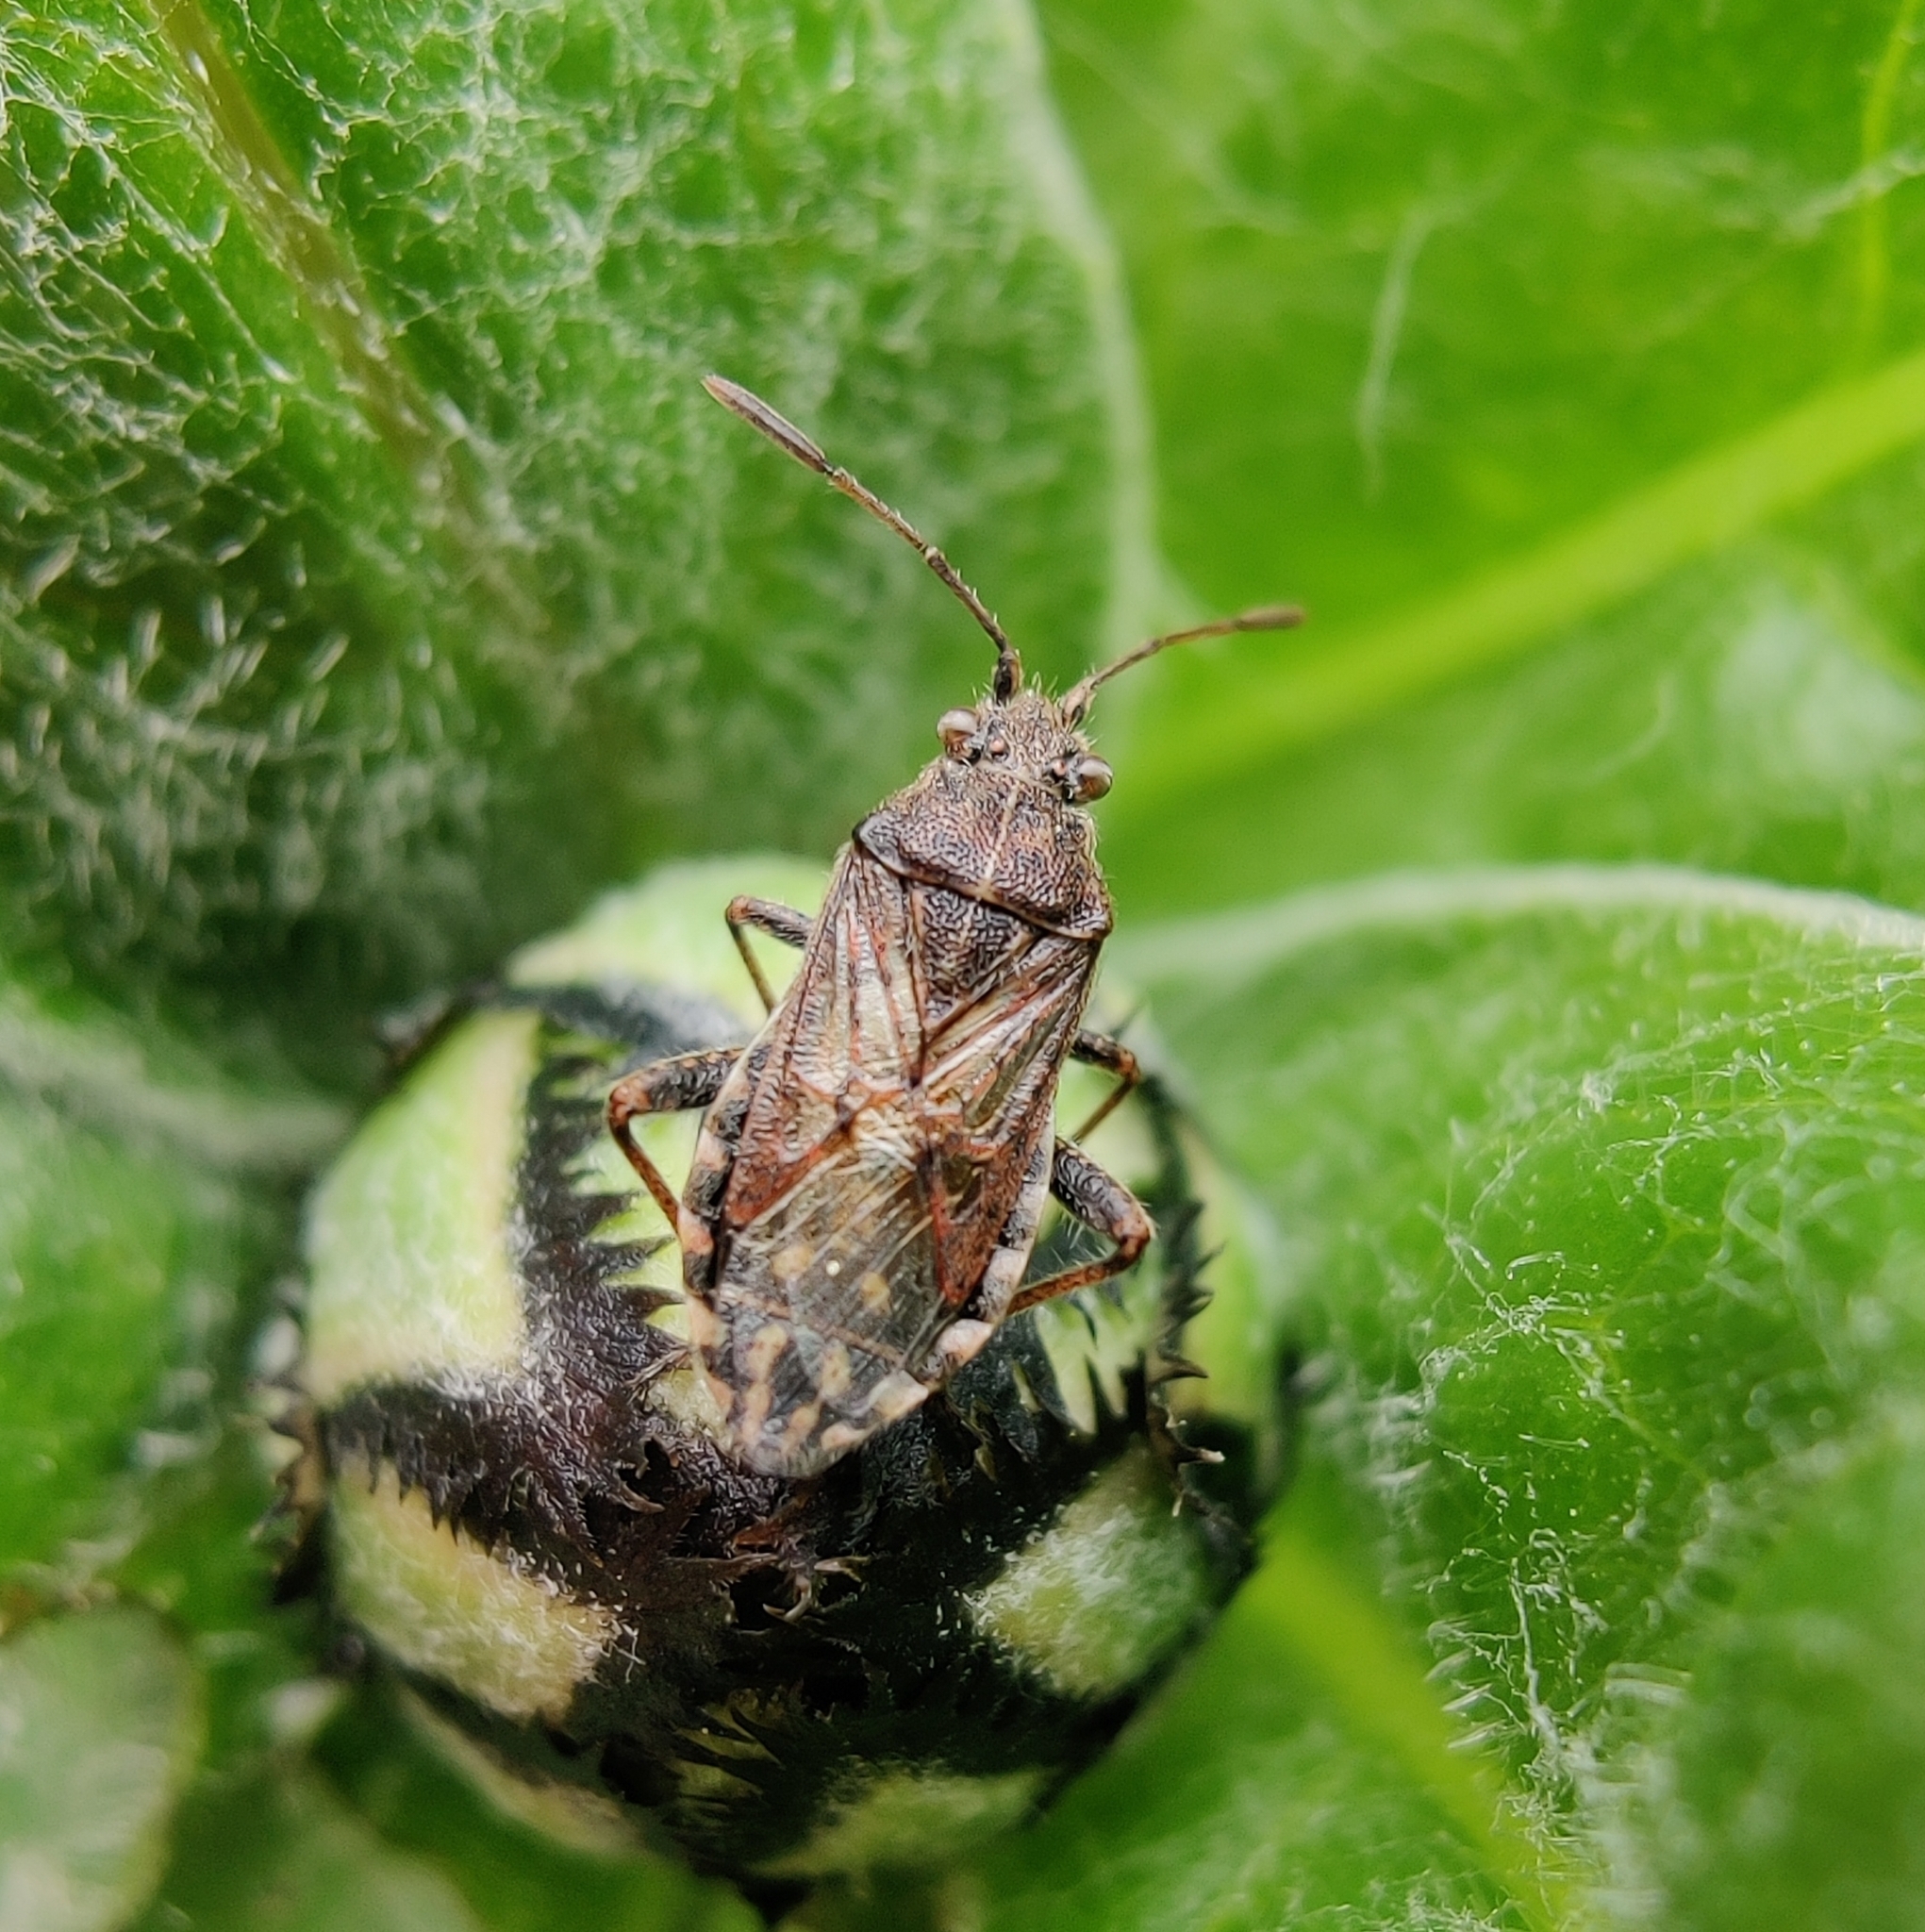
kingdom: Animalia
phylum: Arthropoda
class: Insecta
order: Hemiptera
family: Rhopalidae
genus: Stictopleurus
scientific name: Stictopleurus punctatonervosus
